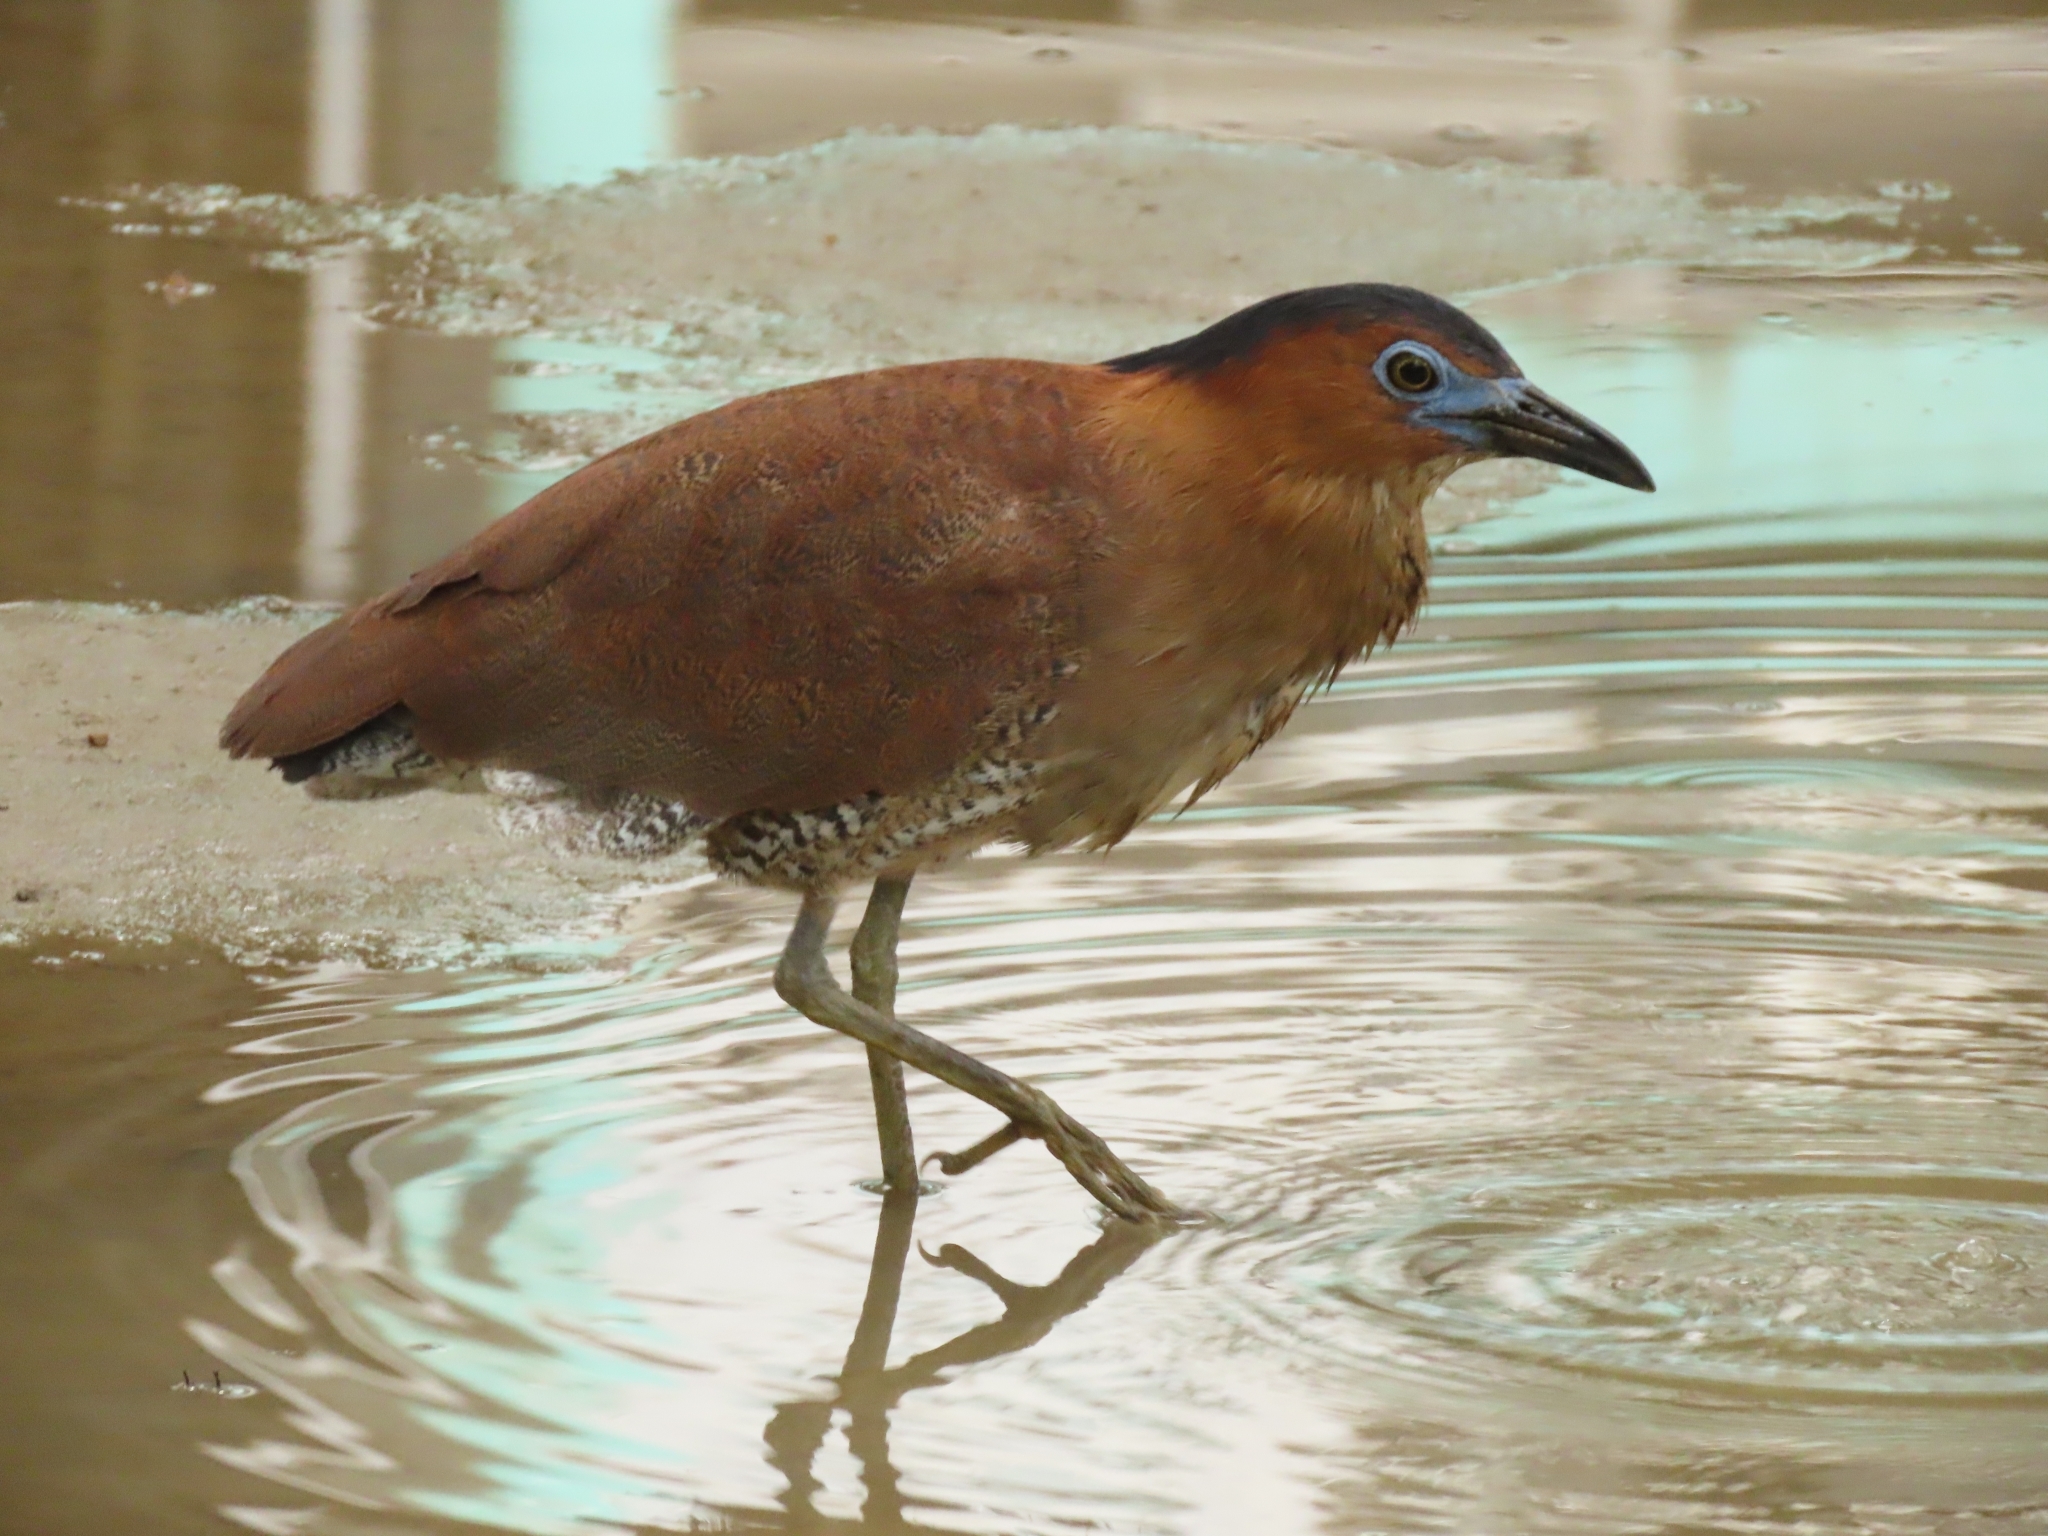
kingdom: Animalia
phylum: Chordata
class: Aves
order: Pelecaniformes
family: Ardeidae
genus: Gorsachius
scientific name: Gorsachius melanolophus
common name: Malayan night heron
